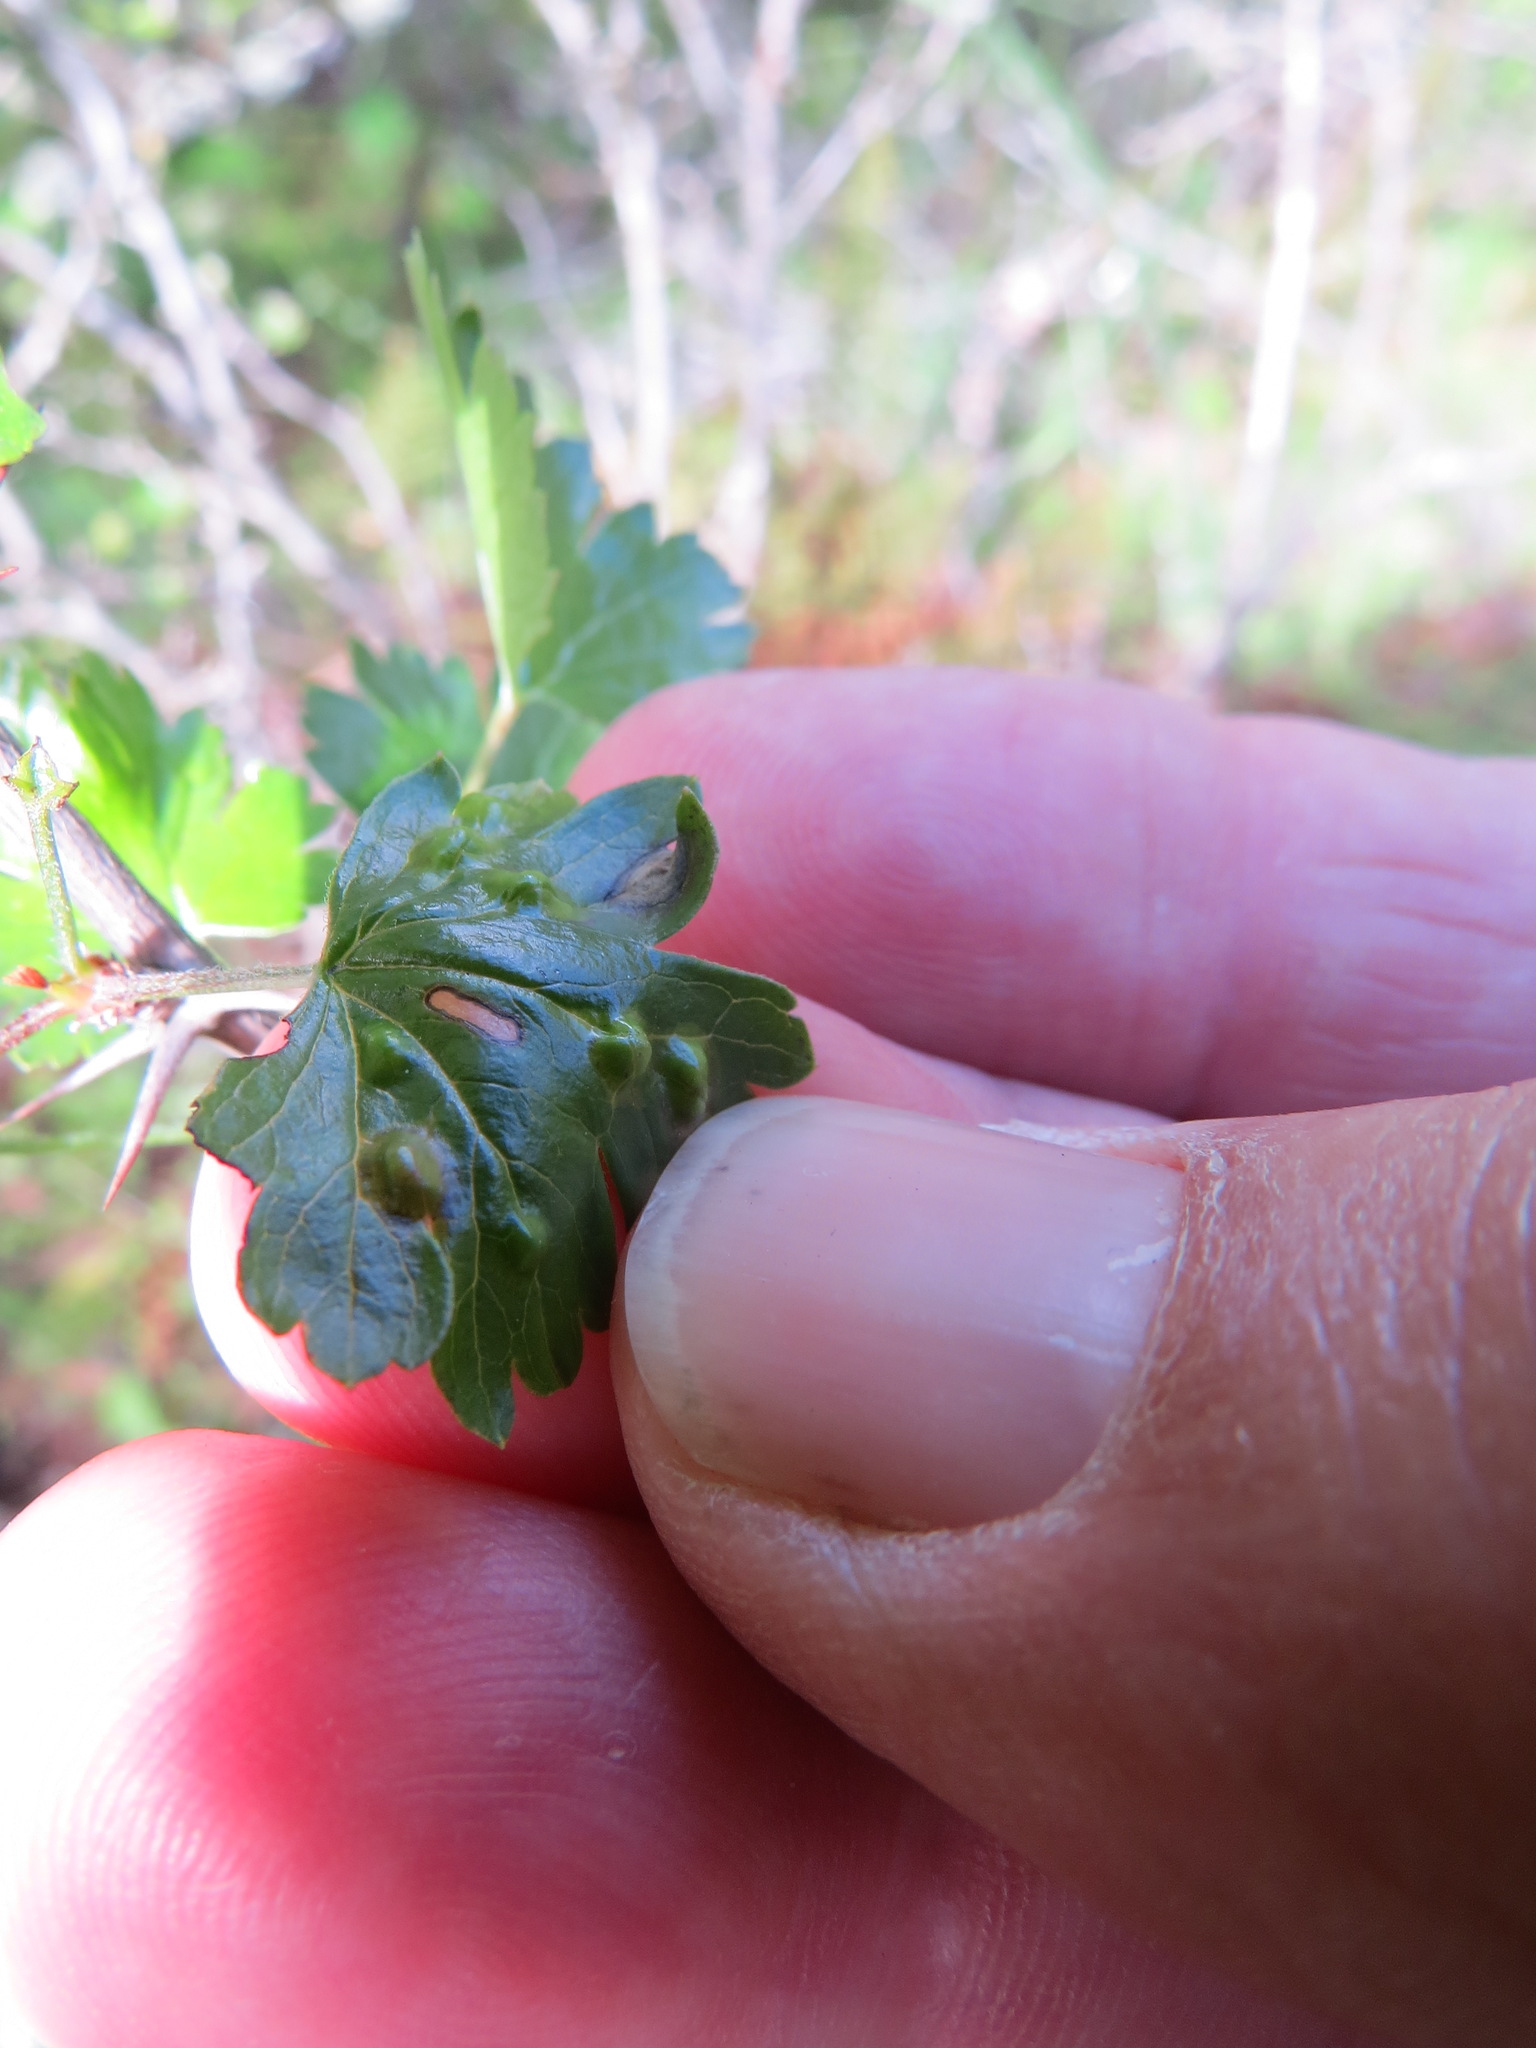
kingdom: Animalia
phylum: Arthropoda
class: Insecta
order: Diptera
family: Cecidomyiidae
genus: Ribesia
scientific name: Ribesia
